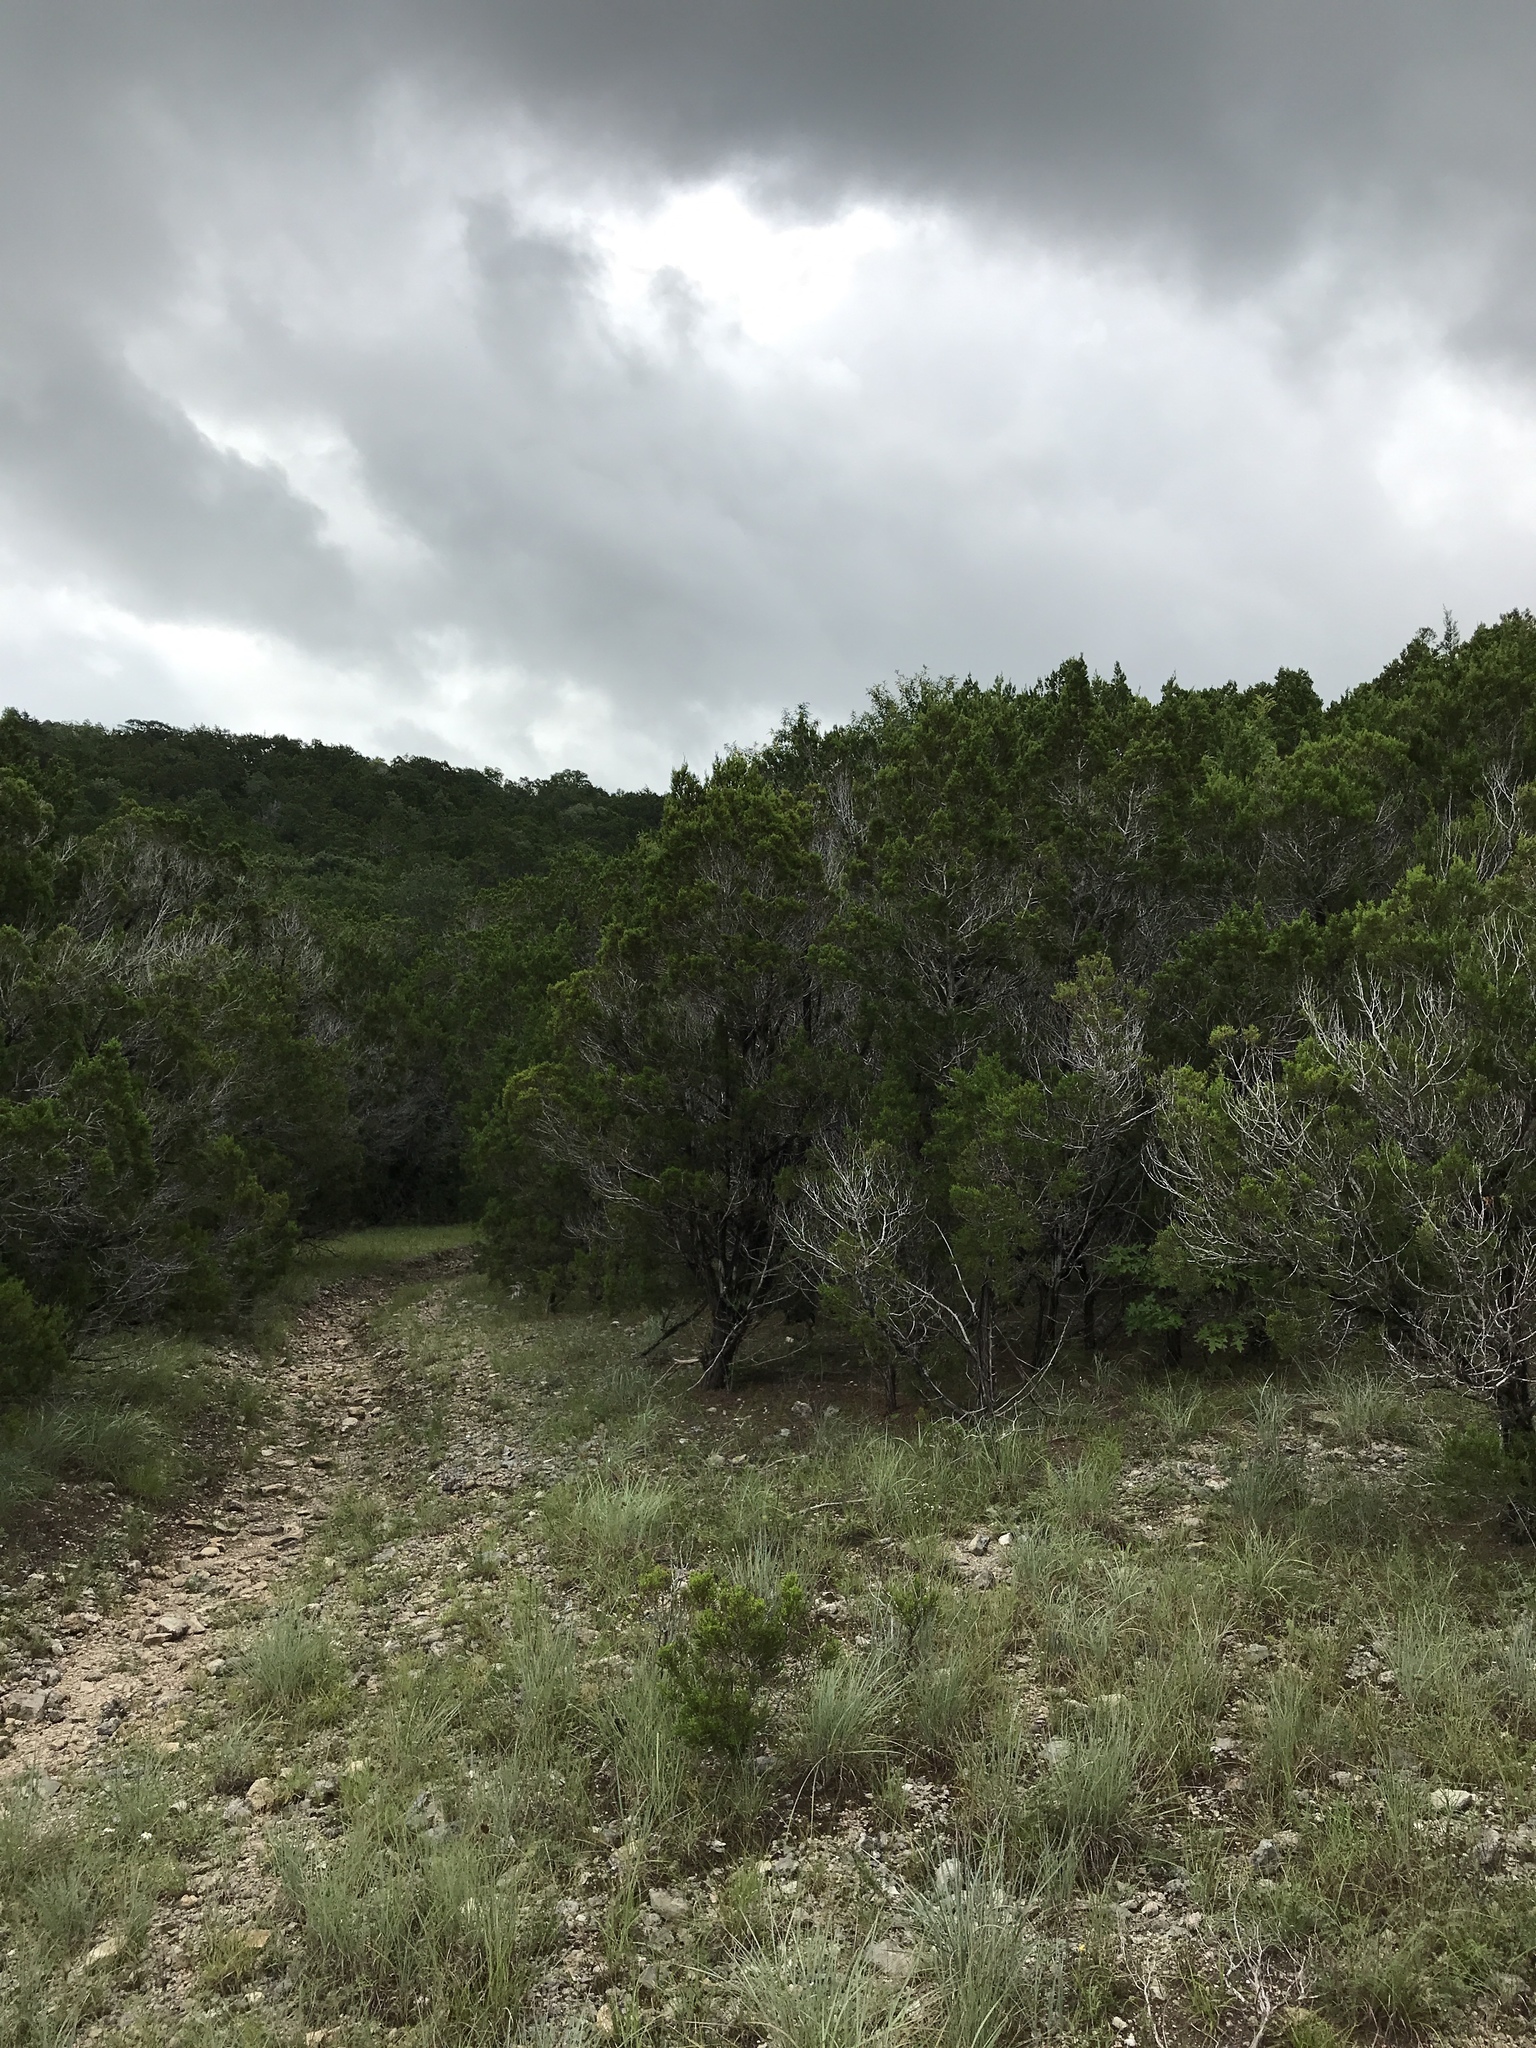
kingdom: Plantae
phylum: Tracheophyta
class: Pinopsida
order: Pinales
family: Cupressaceae
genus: Juniperus
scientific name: Juniperus ashei
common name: Mexican juniper
